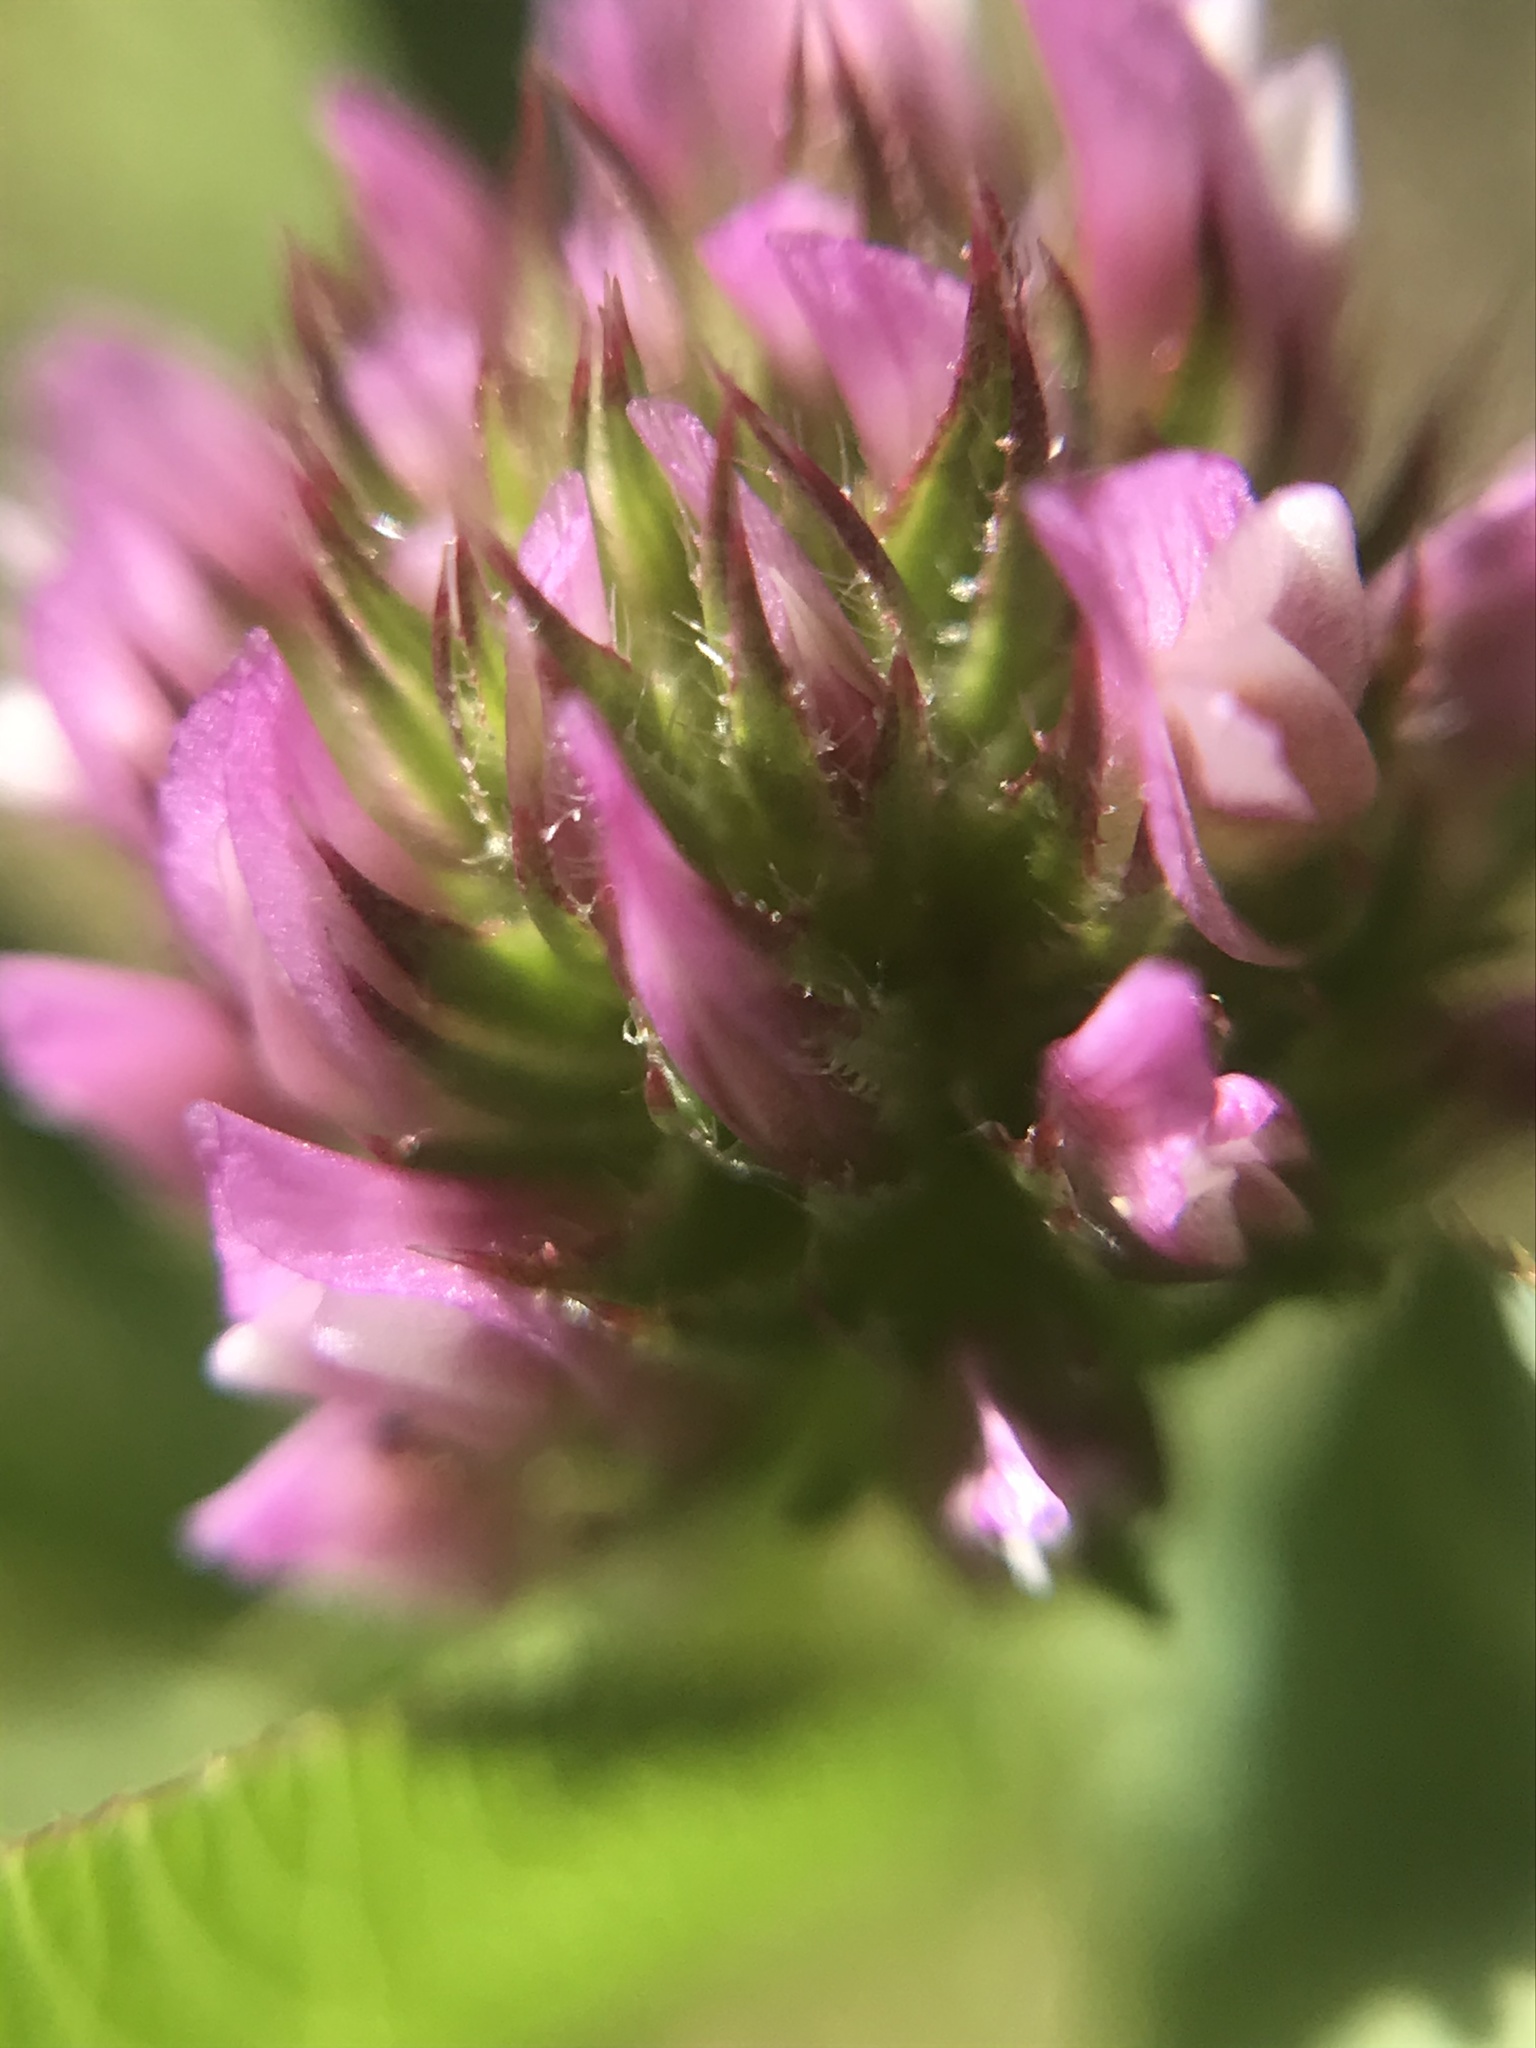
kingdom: Plantae
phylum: Tracheophyta
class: Magnoliopsida
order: Fabales
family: Fabaceae
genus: Trifolium
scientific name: Trifolium ciliolatum
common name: Foothill clover
